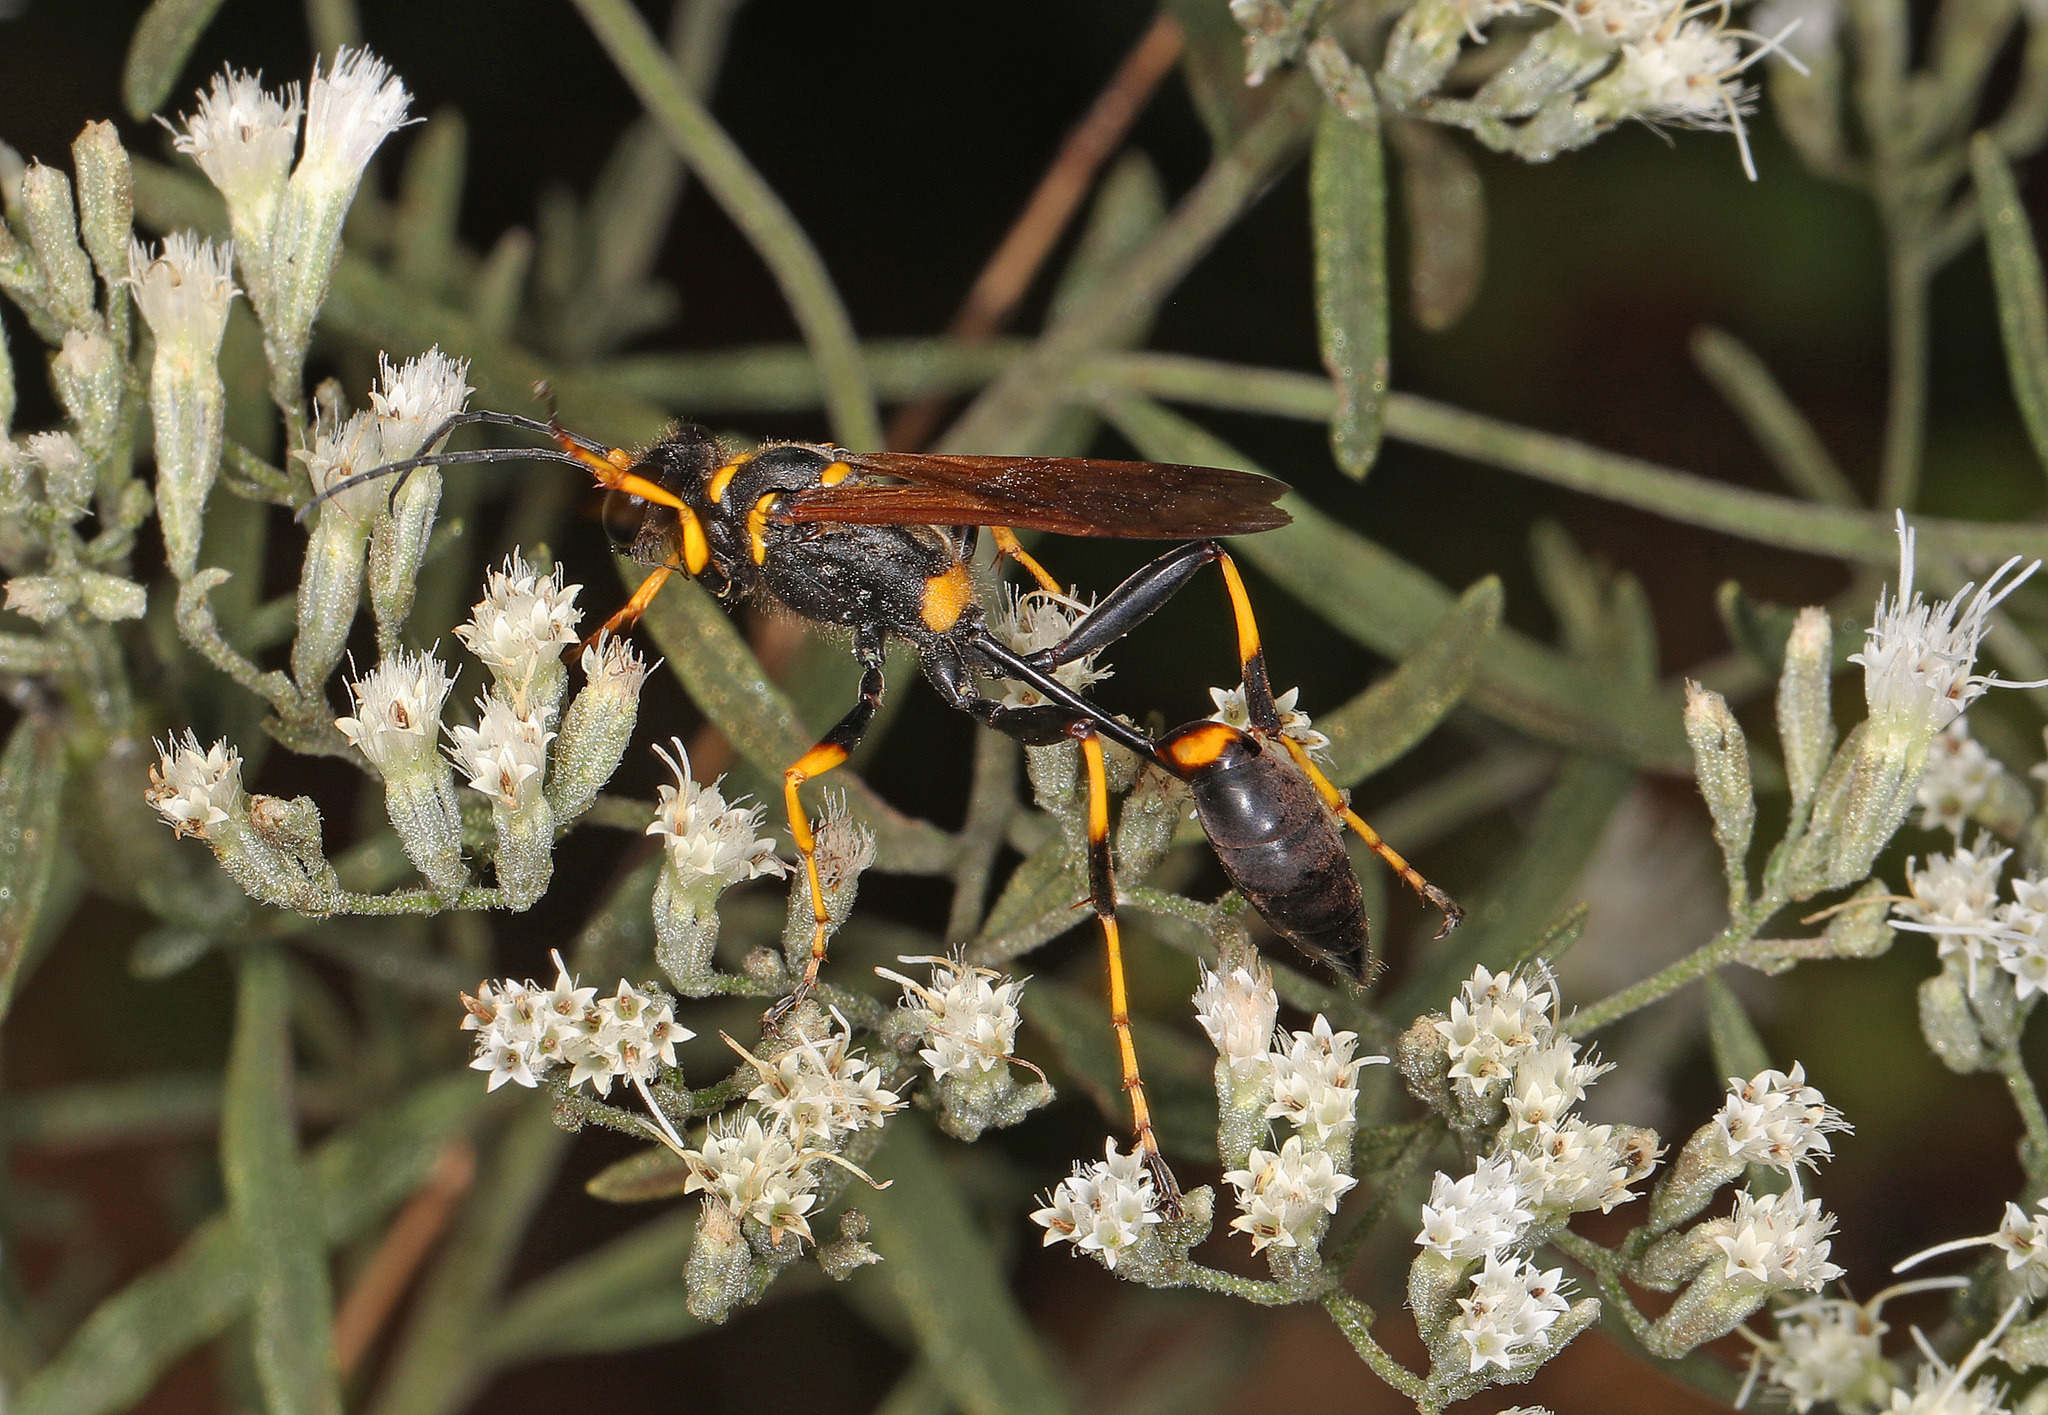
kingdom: Animalia
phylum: Arthropoda
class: Insecta
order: Hymenoptera
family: Sphecidae
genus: Sceliphron
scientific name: Sceliphron caementarium
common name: Mud dauber
